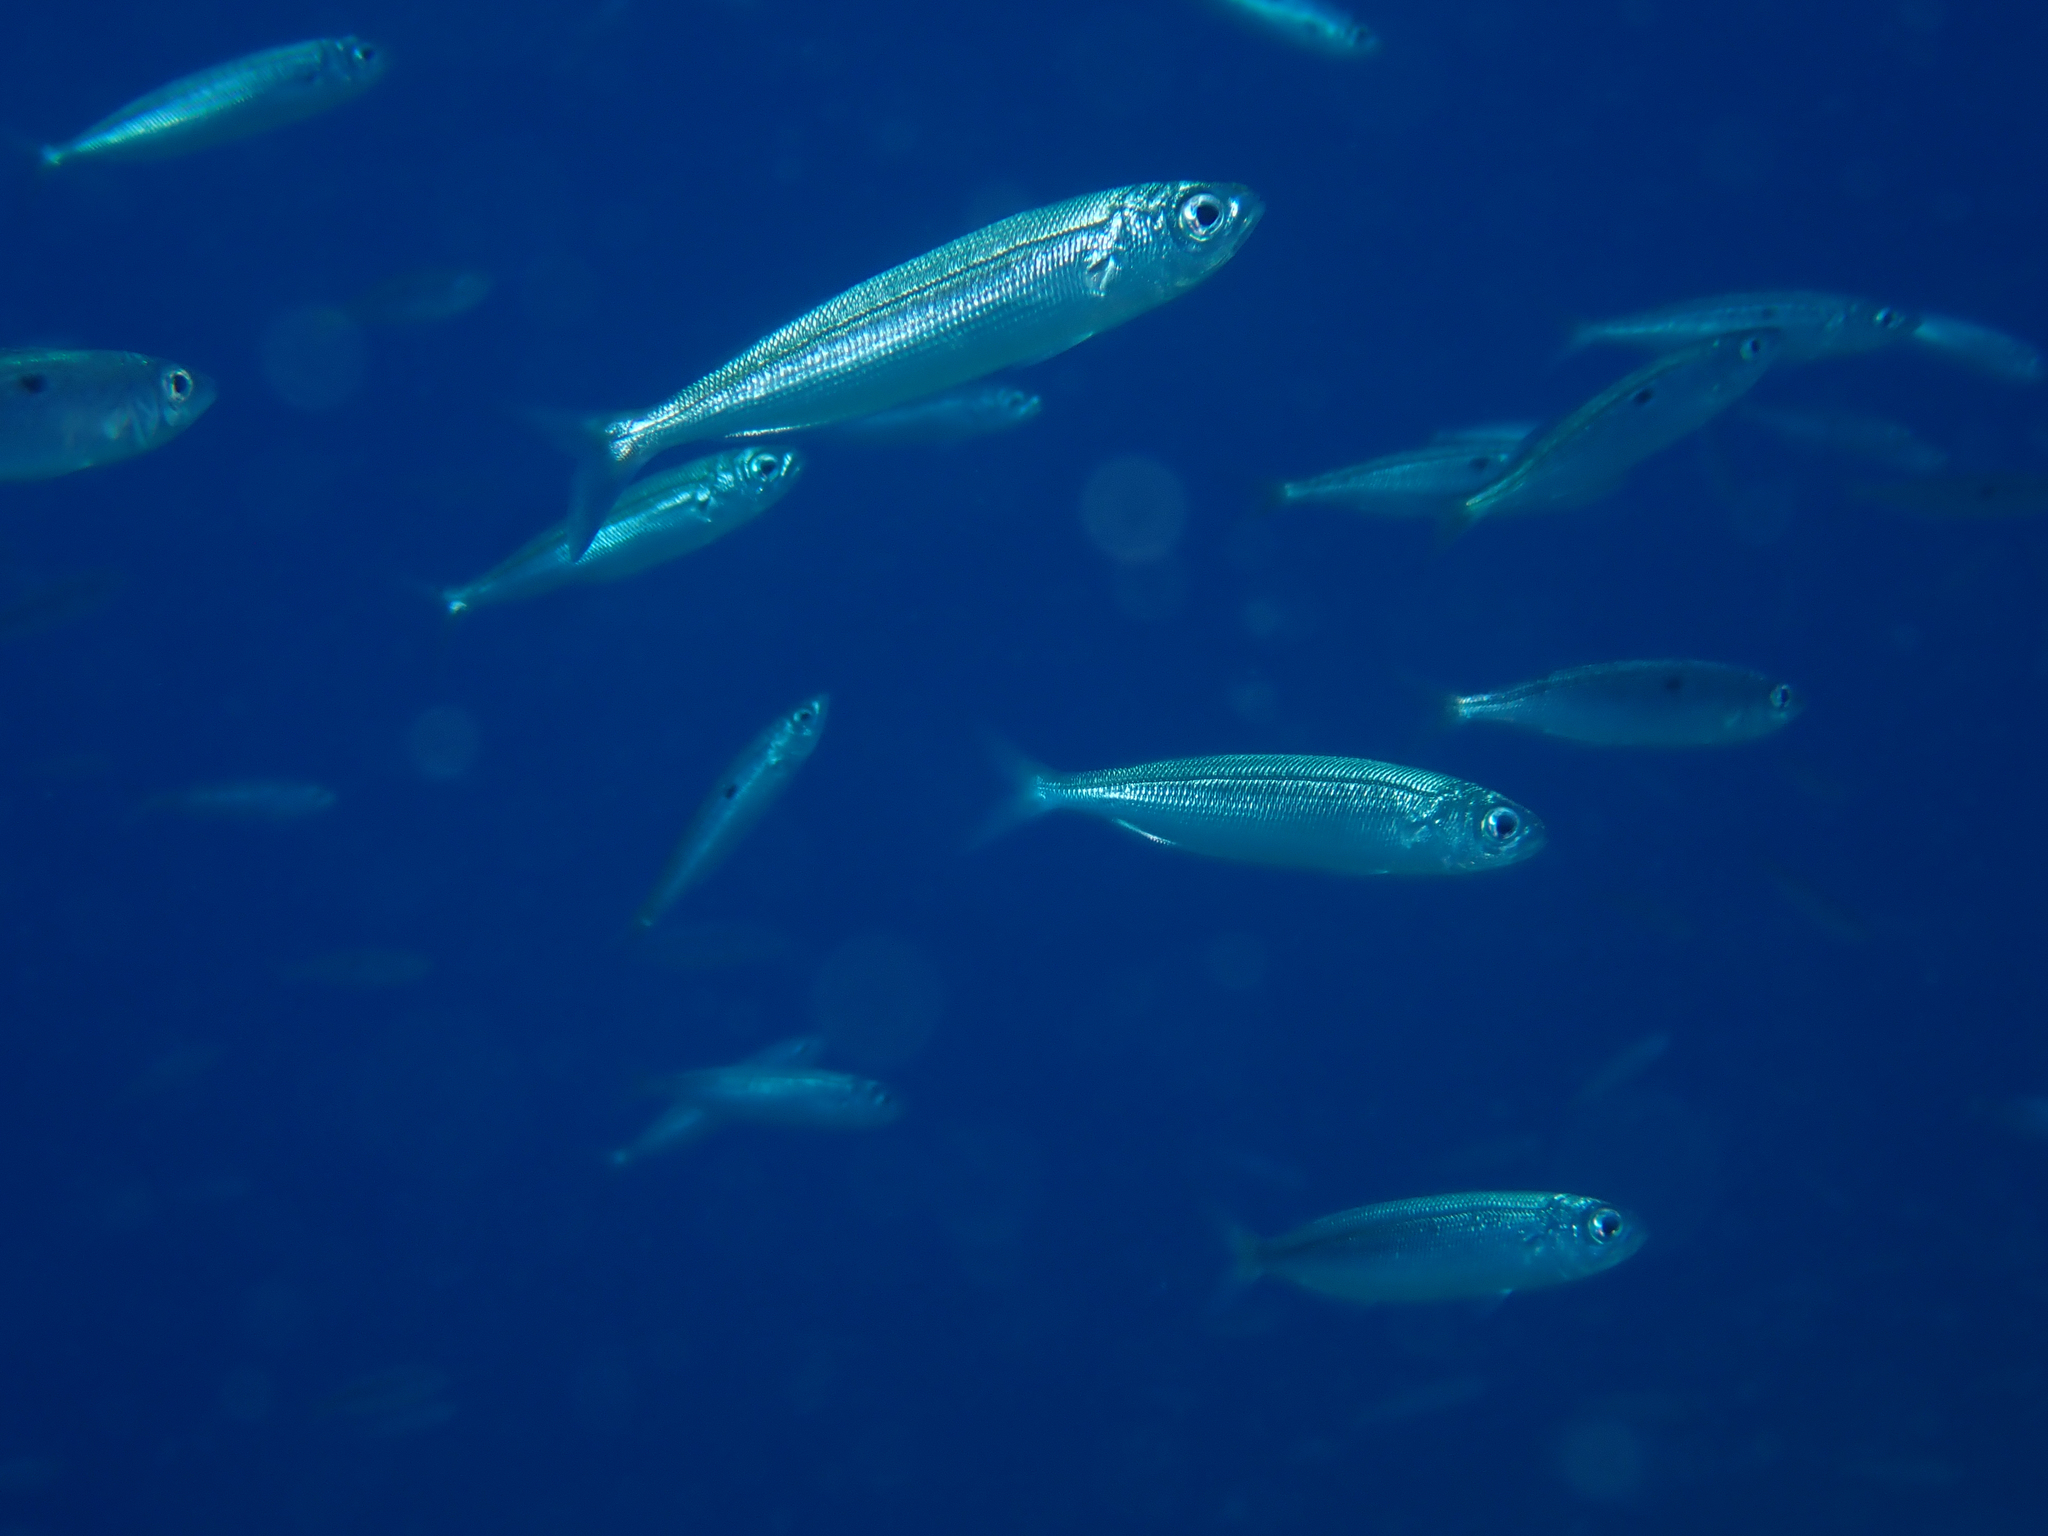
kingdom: Animalia
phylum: Chordata
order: Perciformes
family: Sparidae
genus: Boops
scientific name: Boops boops
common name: Bogue
